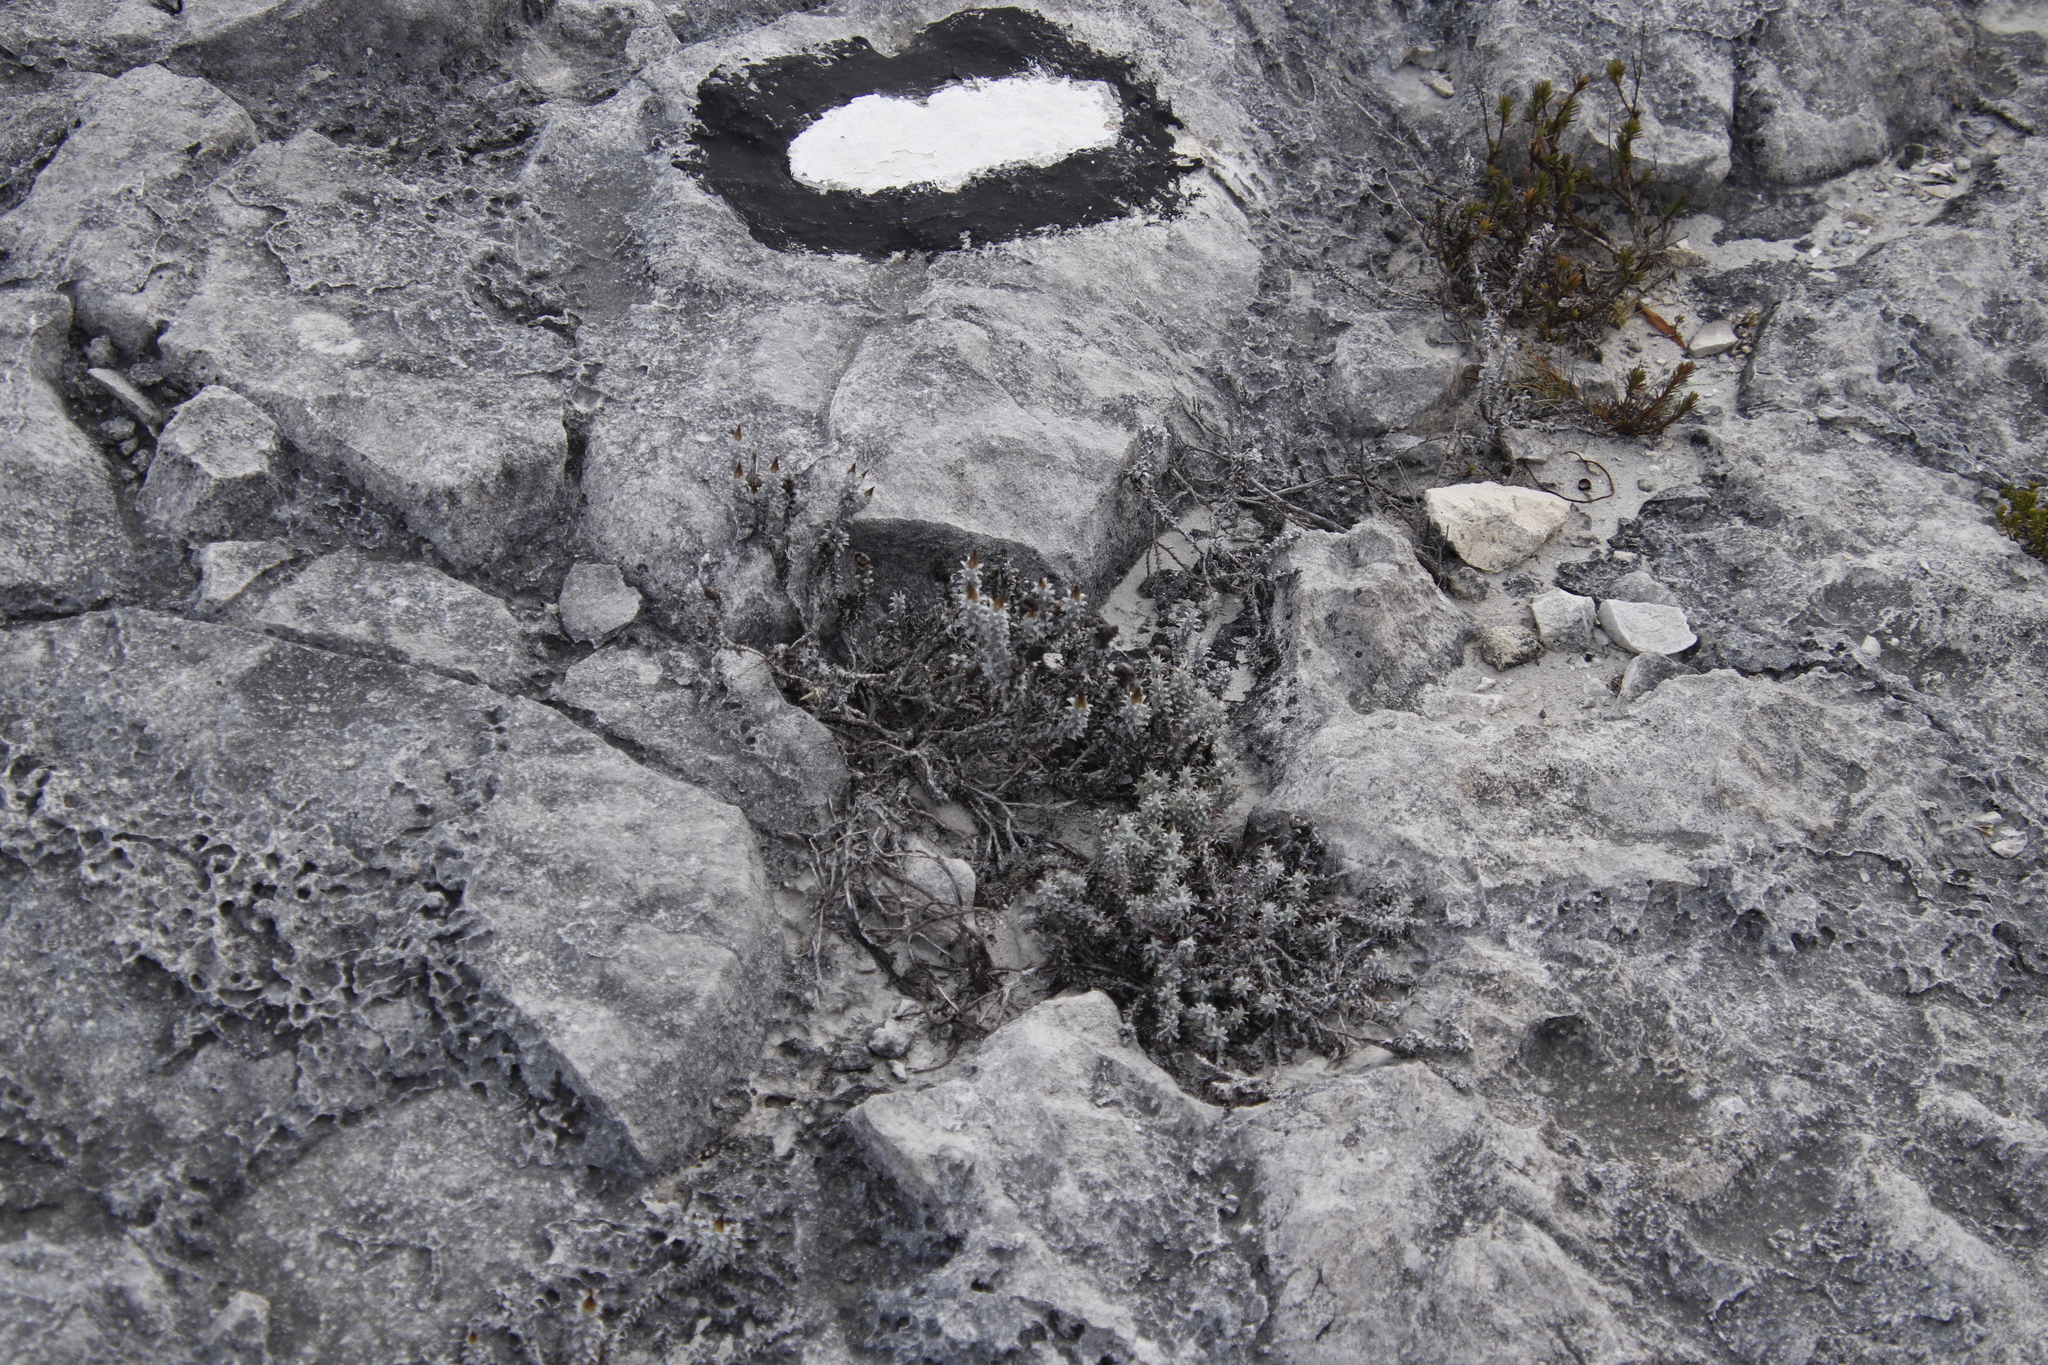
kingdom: Plantae
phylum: Tracheophyta
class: Magnoliopsida
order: Asterales
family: Asteraceae
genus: Helichrysum
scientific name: Helichrysum retortum
